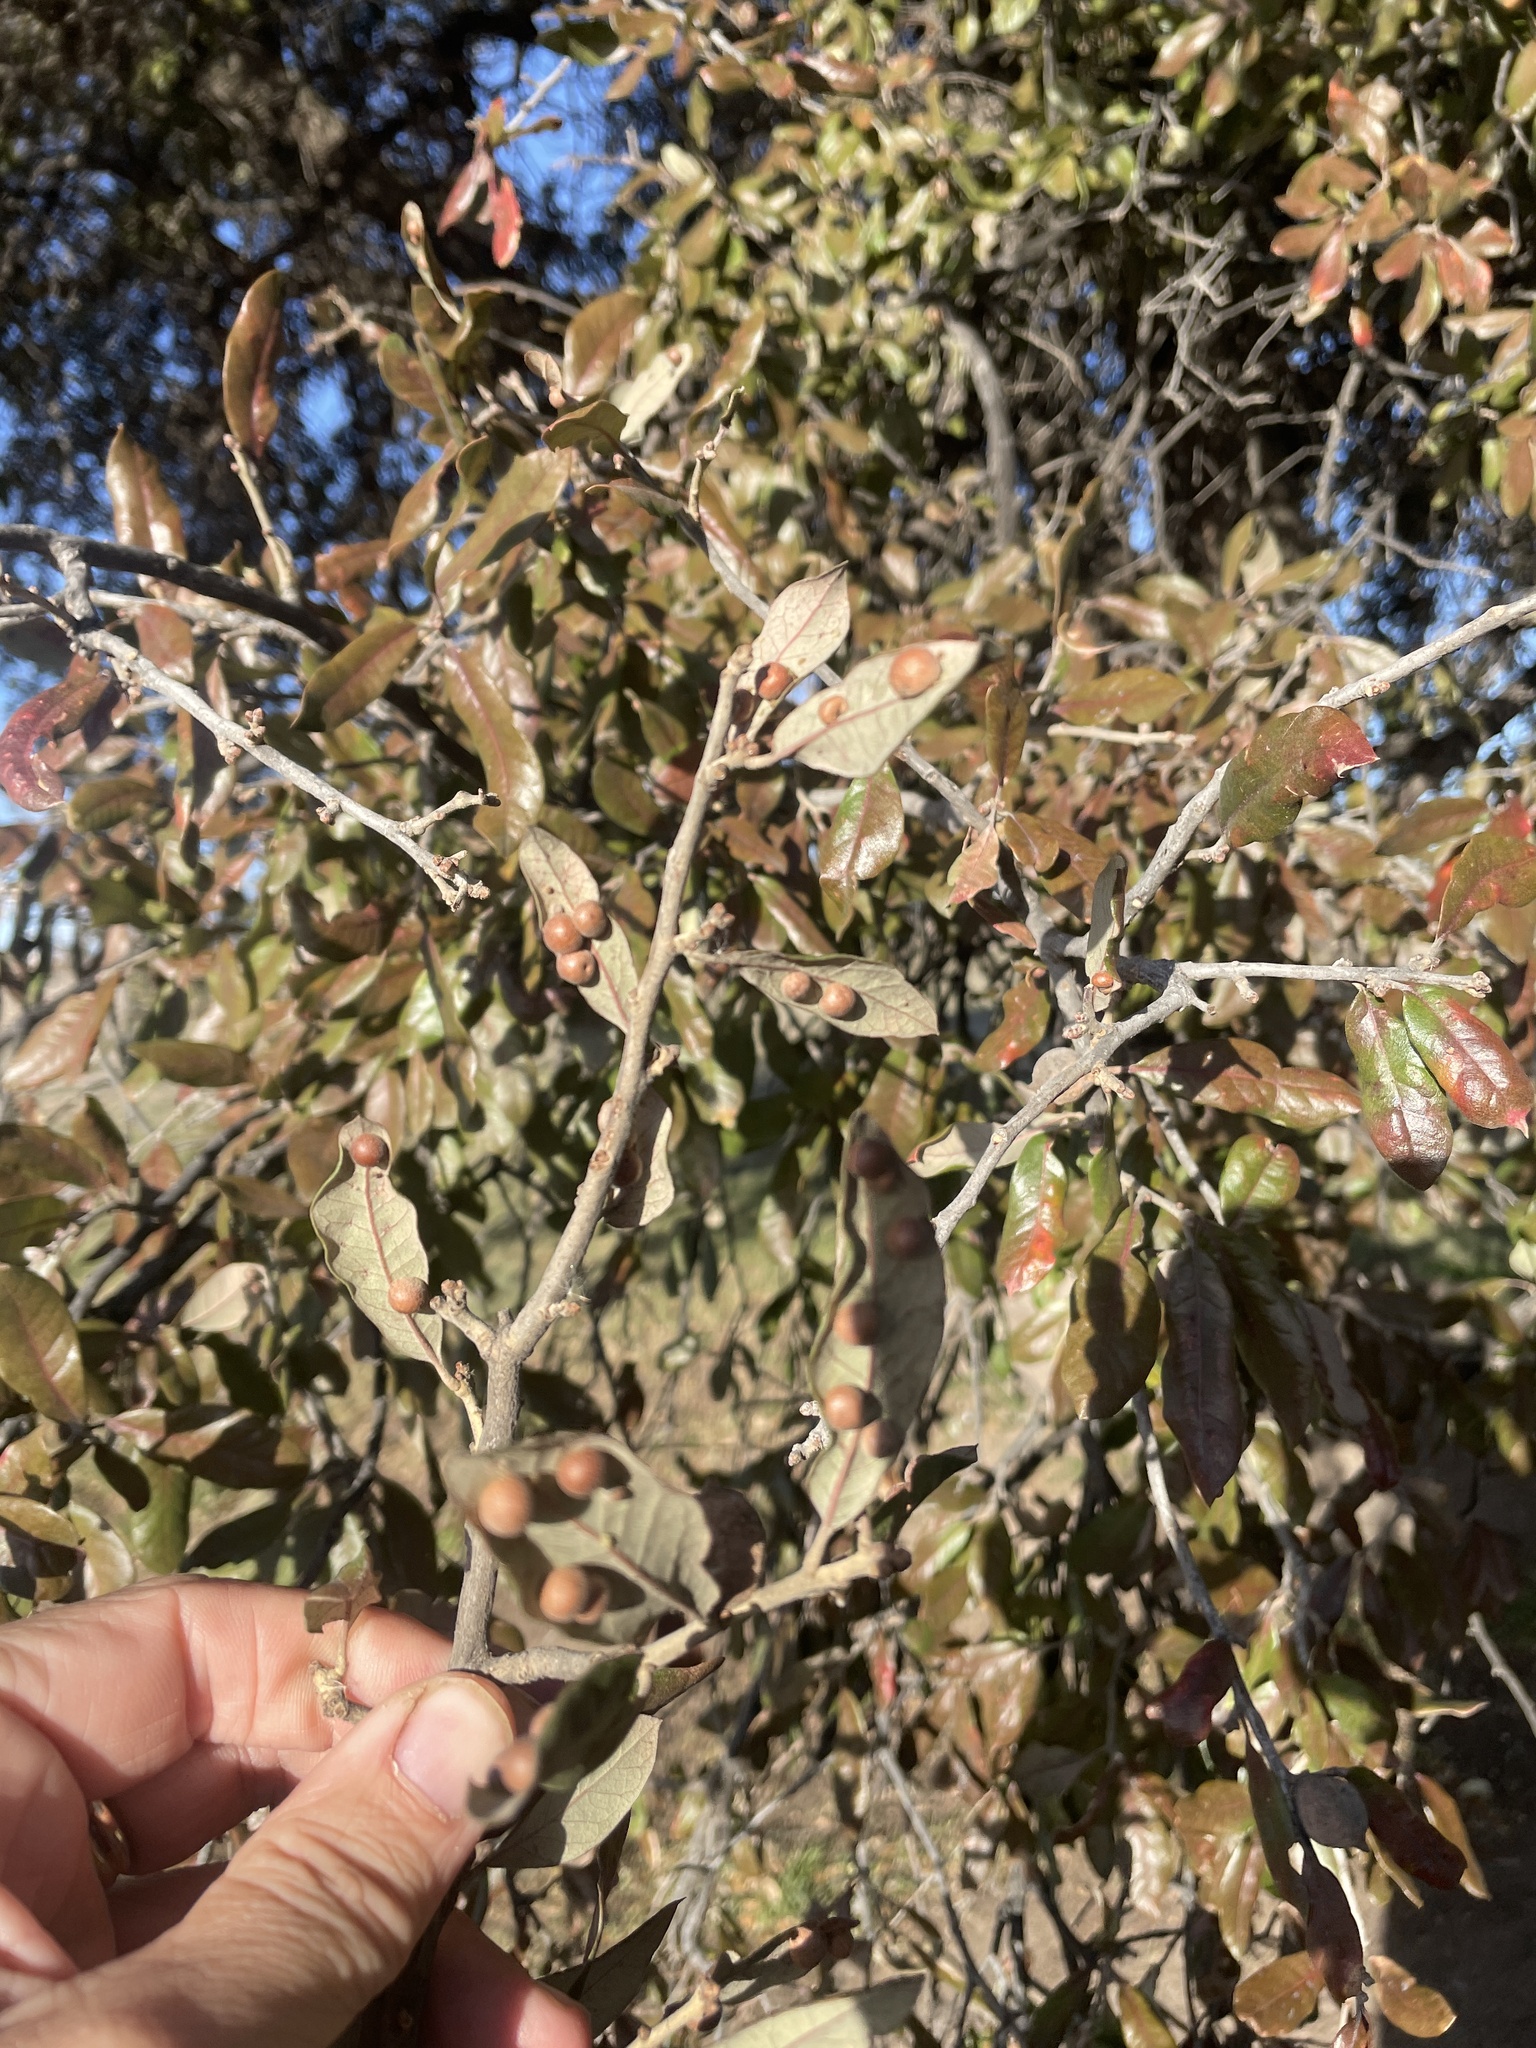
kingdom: Animalia
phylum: Arthropoda
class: Insecta
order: Hymenoptera
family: Cynipidae
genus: Belonocnema
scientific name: Belonocnema kinseyi
